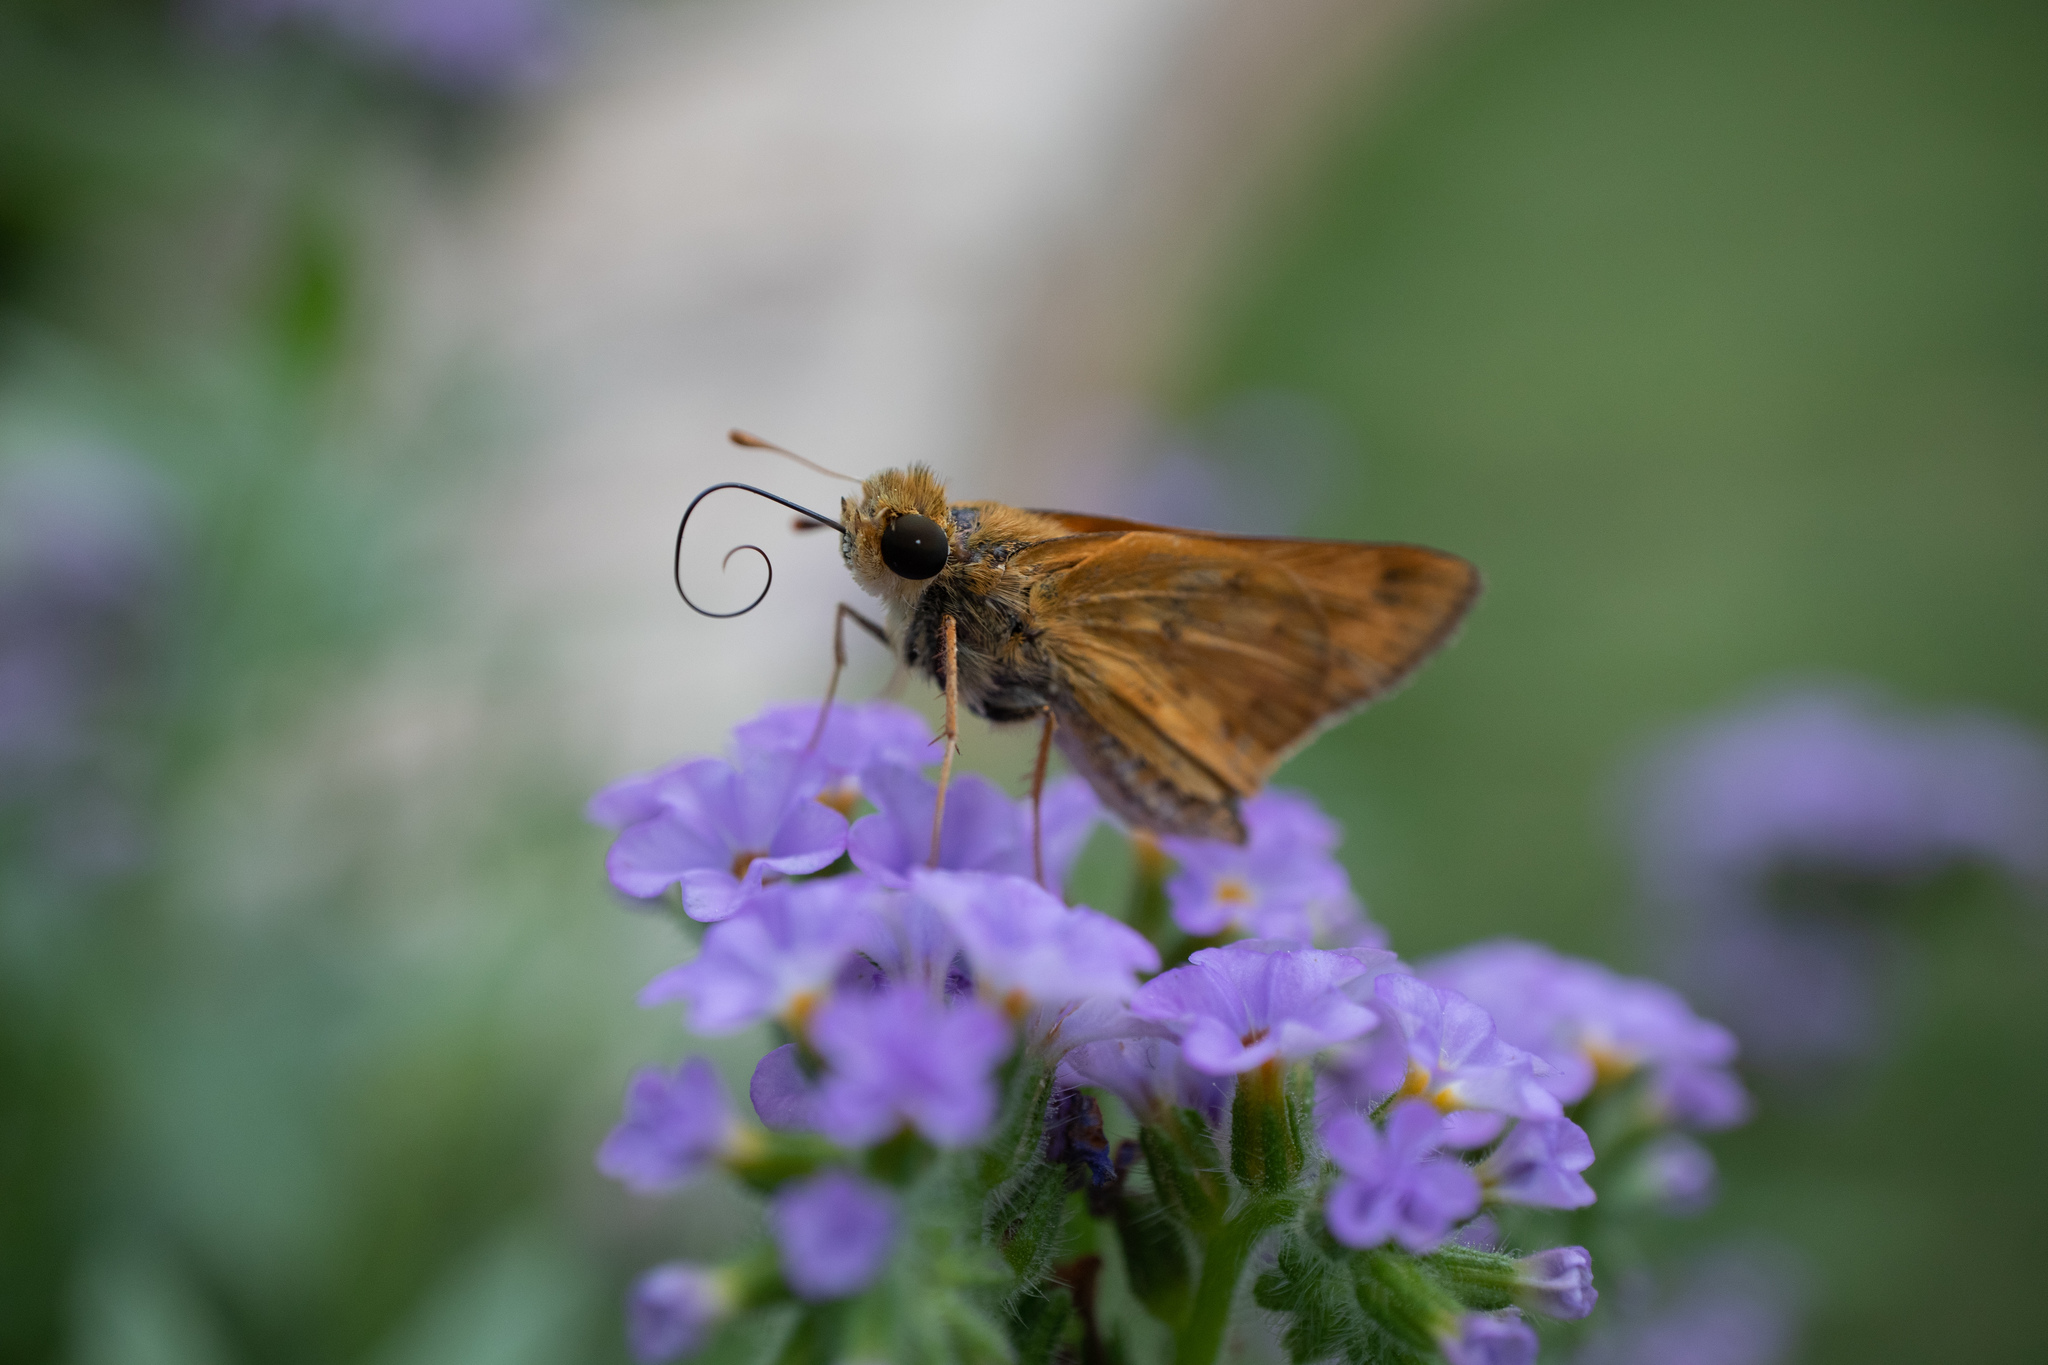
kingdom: Animalia
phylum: Arthropoda
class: Insecta
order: Lepidoptera
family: Hesperiidae
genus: Hylephila
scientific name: Hylephila phyleus
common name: Fiery skipper
